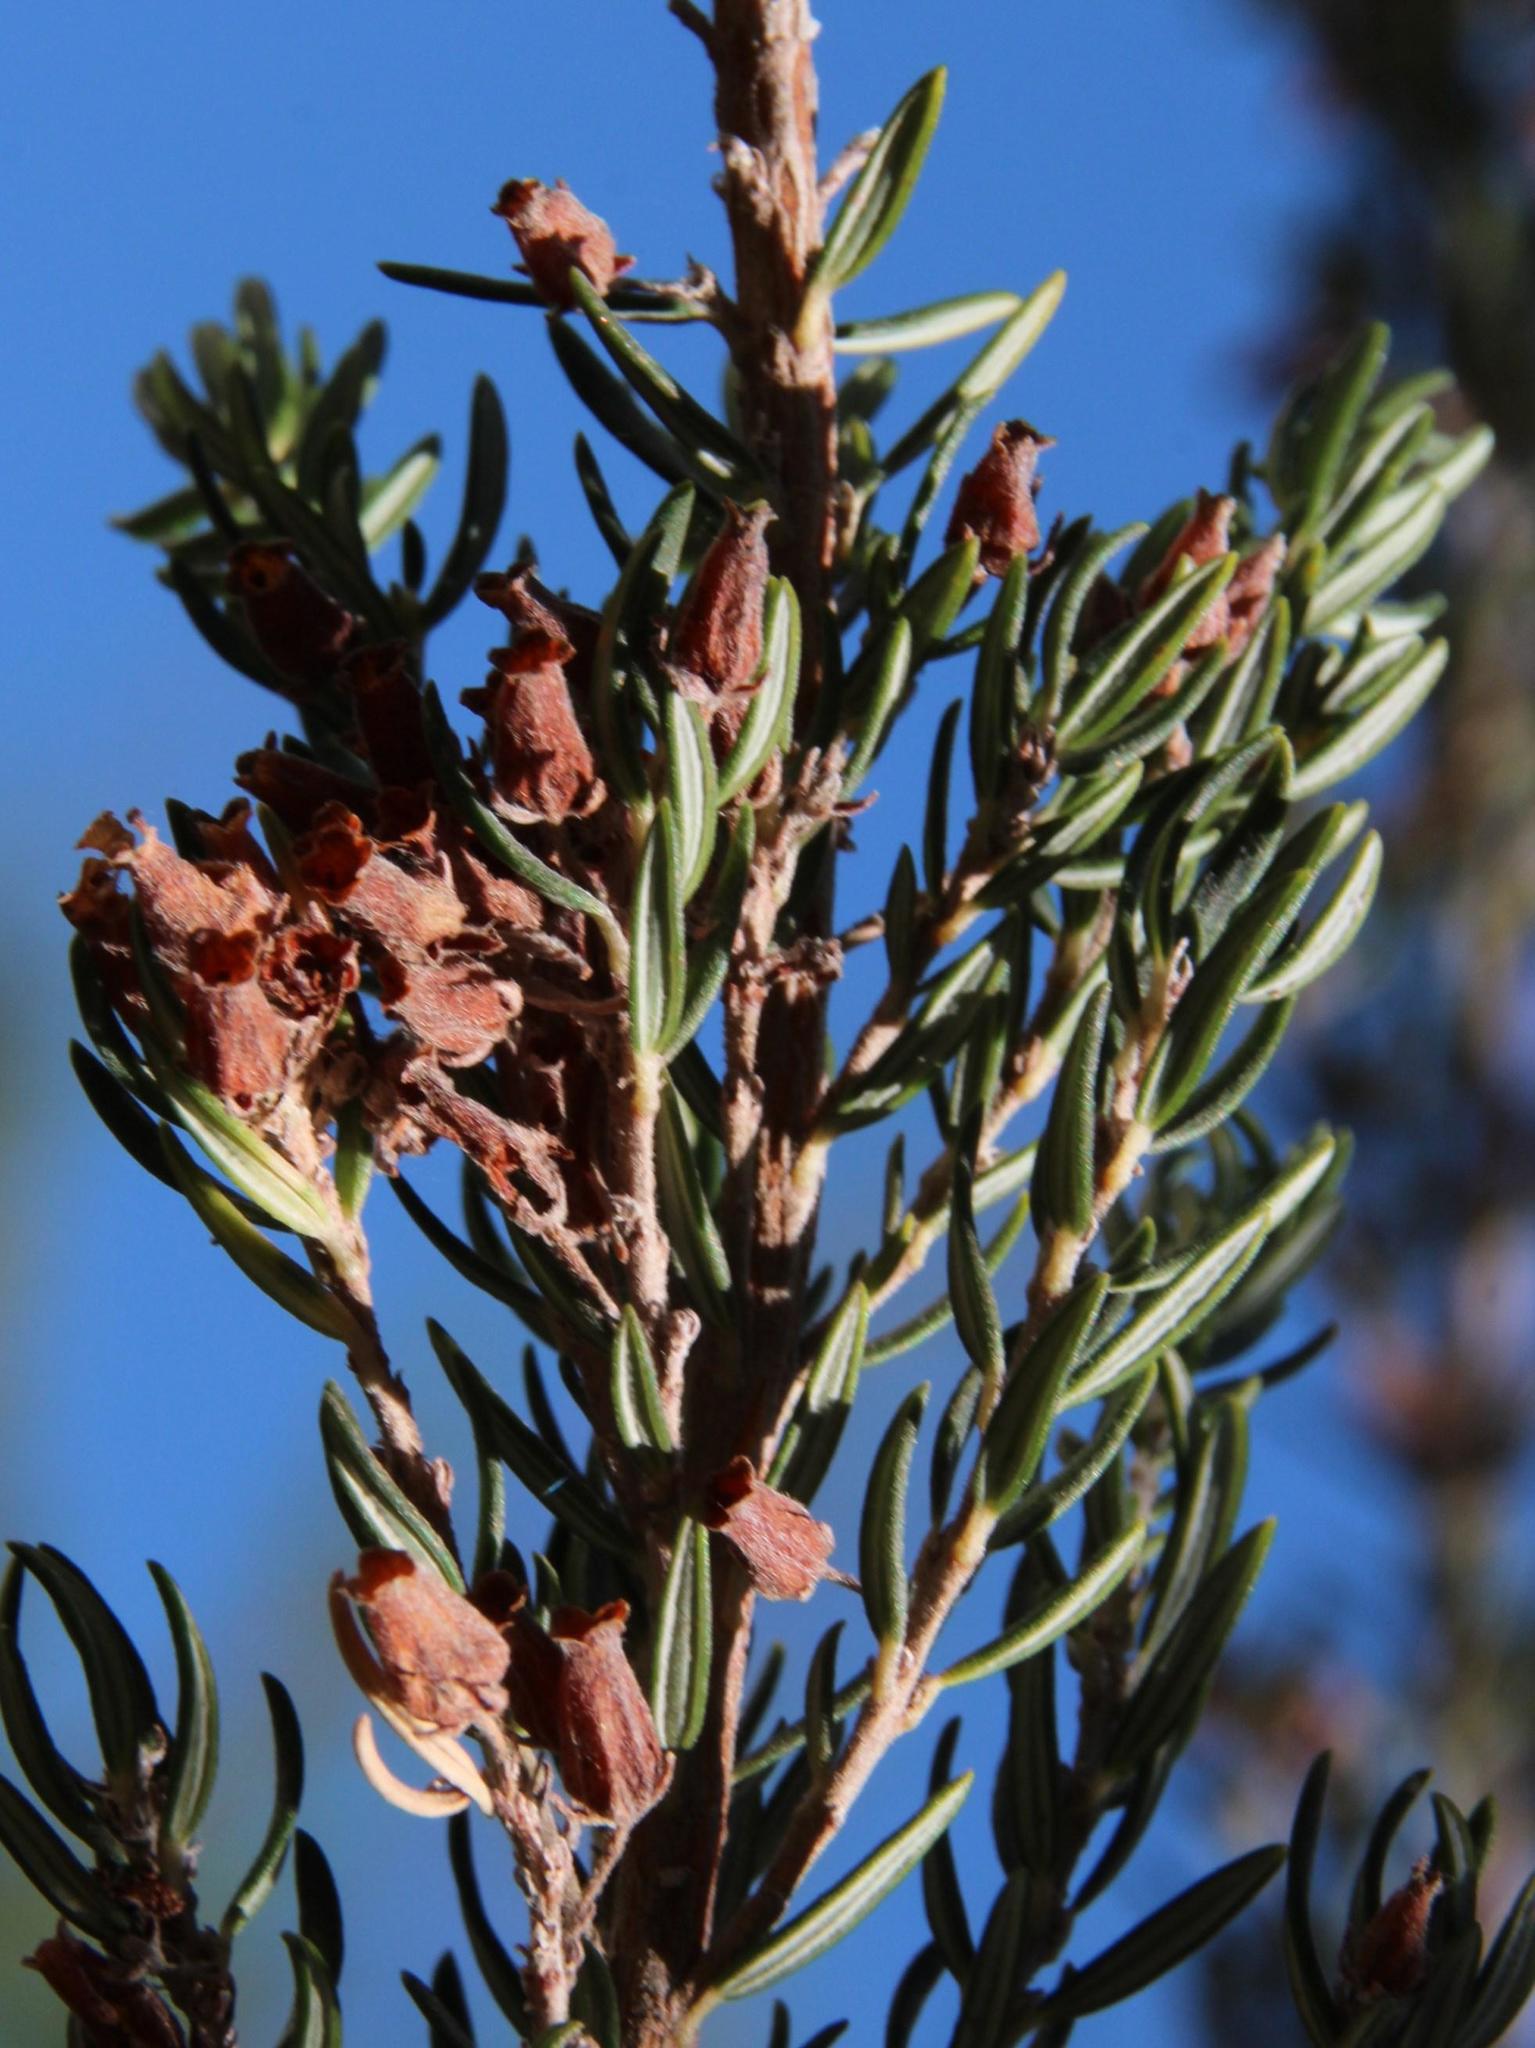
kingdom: Plantae
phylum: Tracheophyta
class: Magnoliopsida
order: Ericales
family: Ericaceae
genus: Erica
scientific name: Erica caffra
